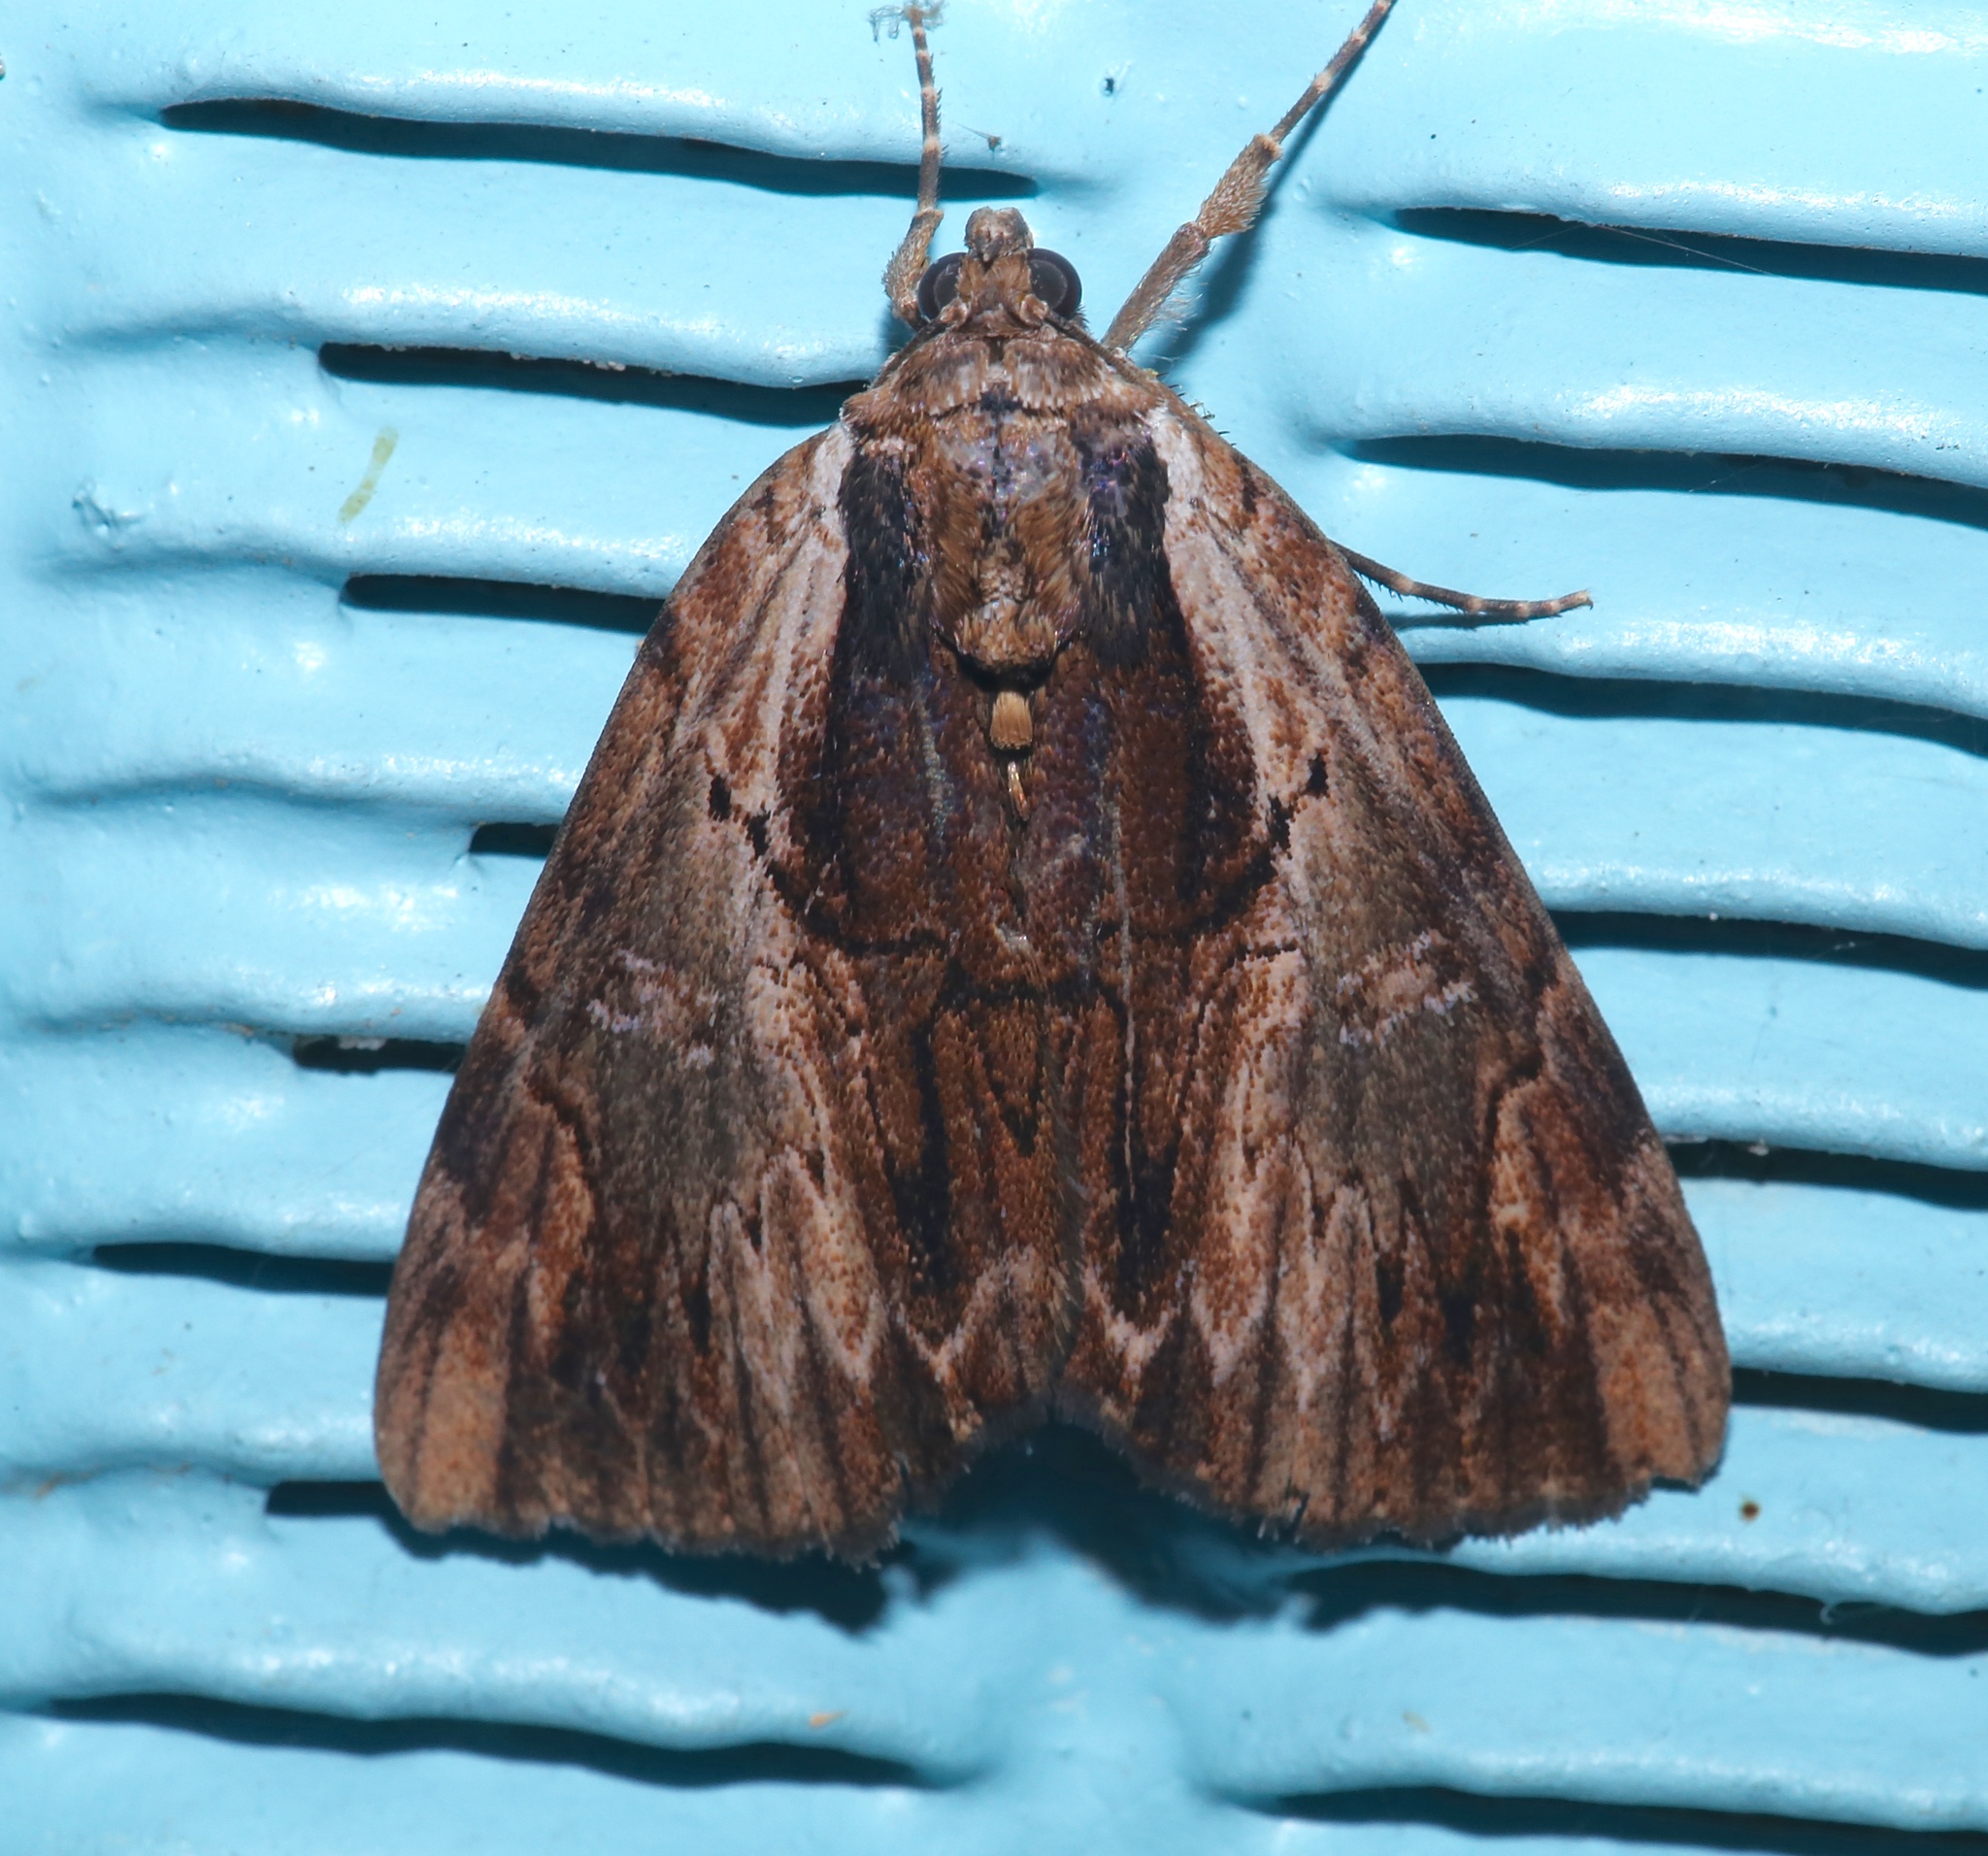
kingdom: Animalia
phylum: Arthropoda
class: Insecta
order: Lepidoptera
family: Erebidae
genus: Catocala
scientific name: Catocala ultronia
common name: Ultronia underwing
